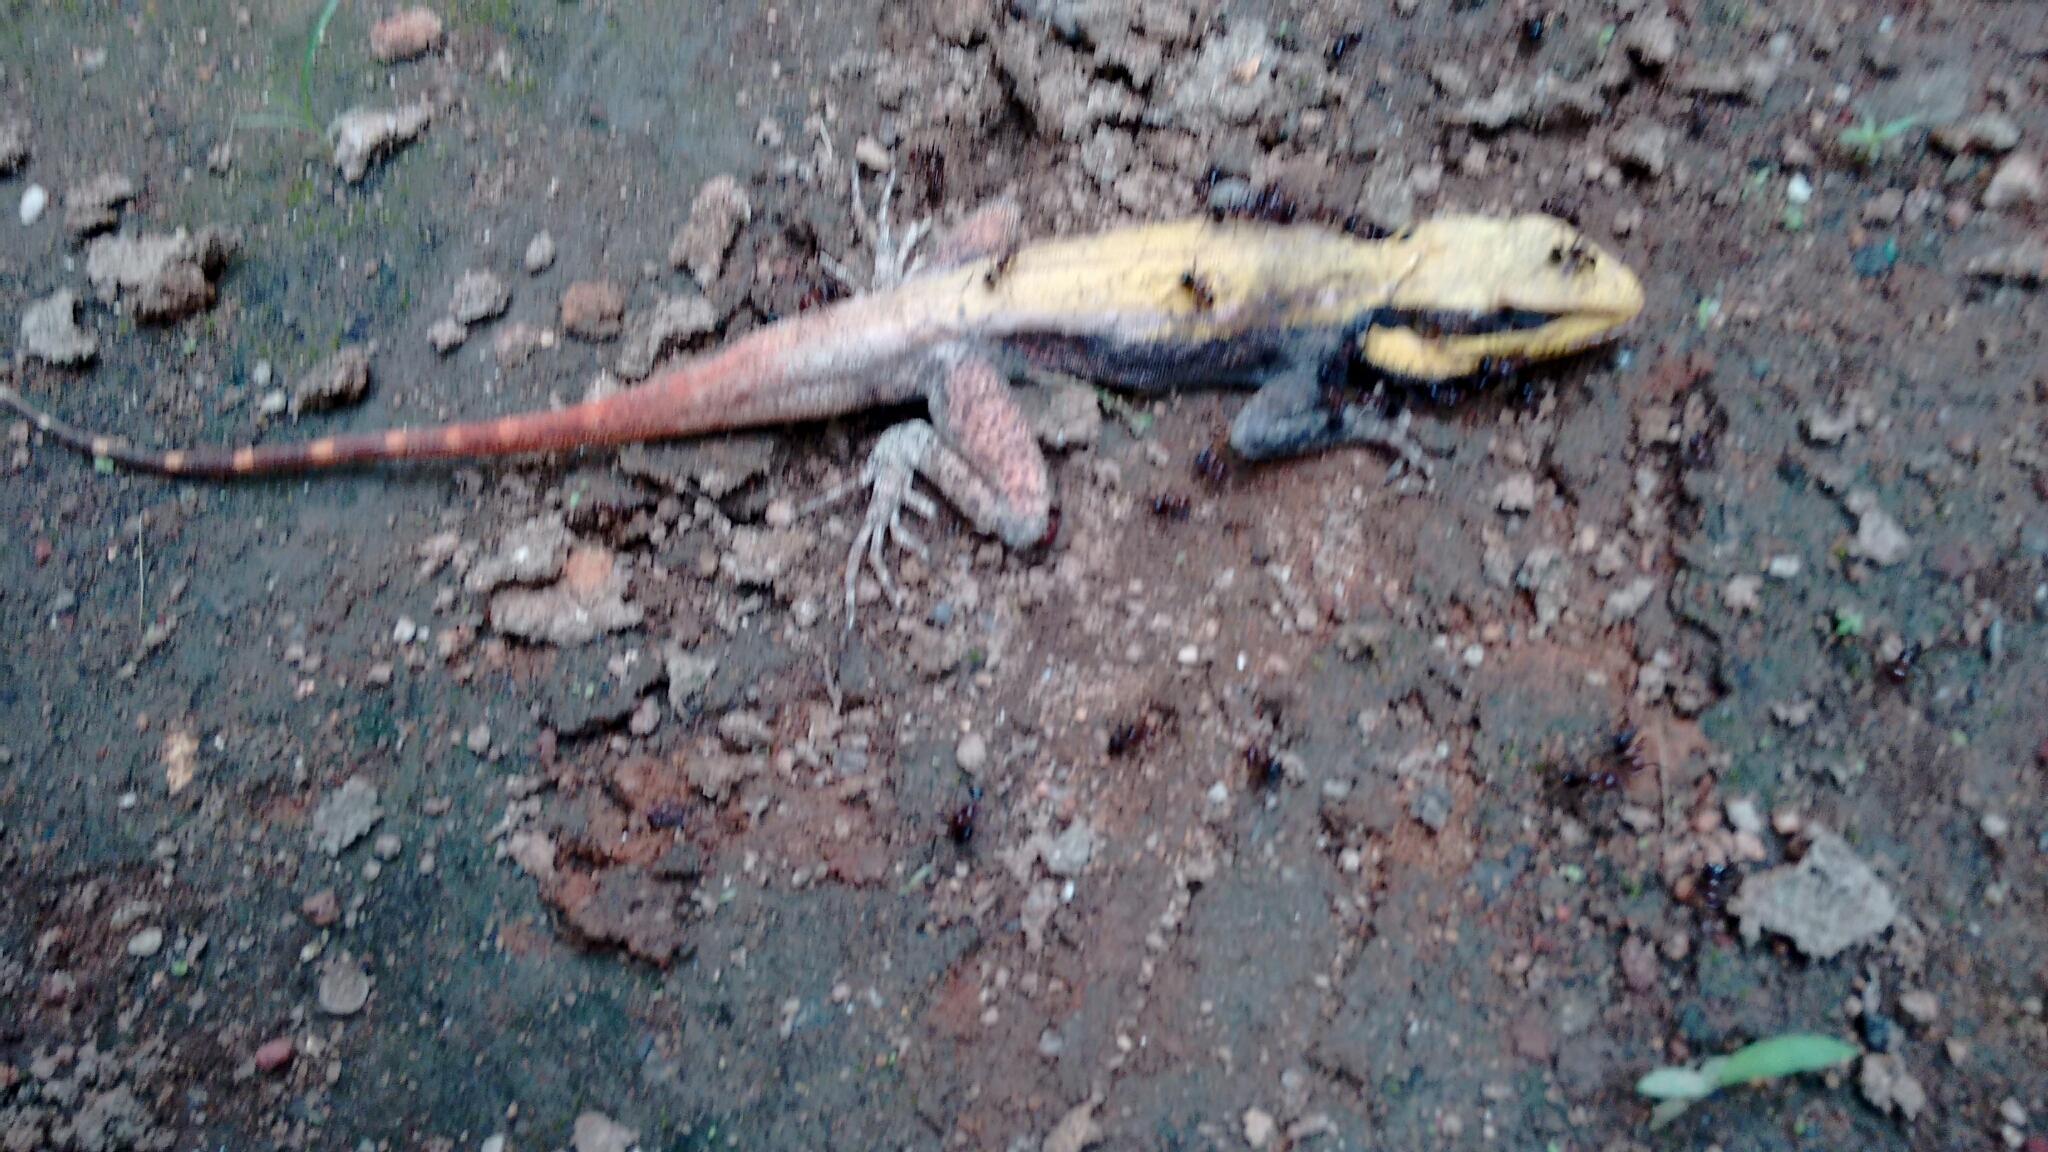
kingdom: Animalia
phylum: Chordata
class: Squamata
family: Agamidae
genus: Psammophilus
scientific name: Psammophilus dorsalis
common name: South indian rock agama
